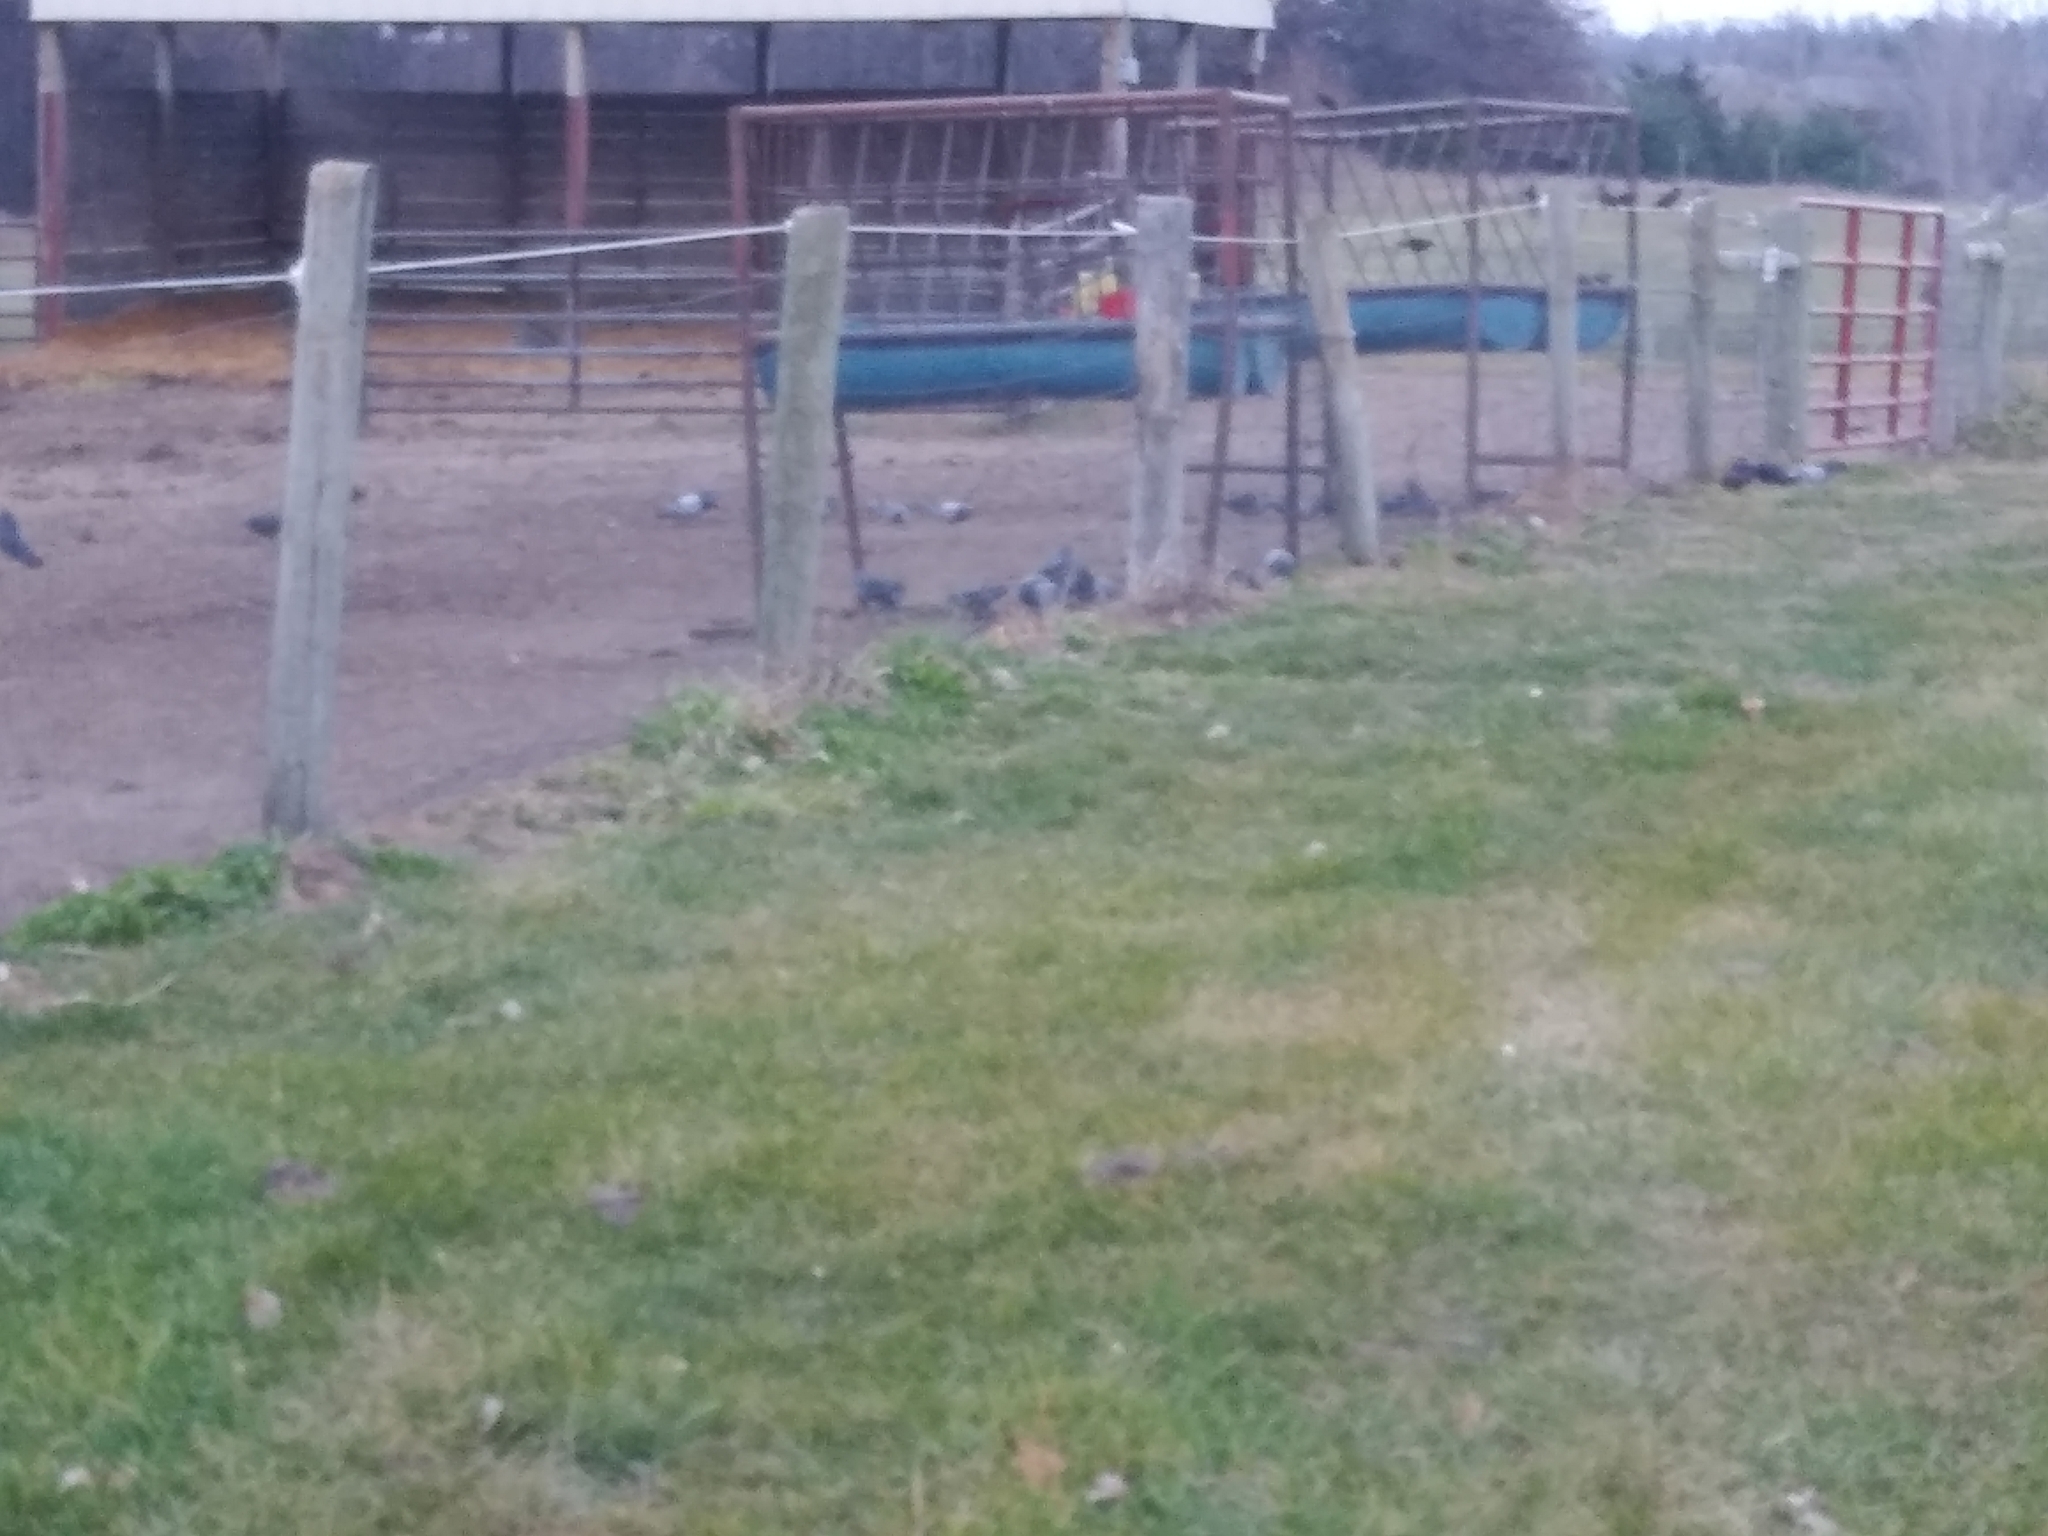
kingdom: Animalia
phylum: Chordata
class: Aves
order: Columbiformes
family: Columbidae
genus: Columba
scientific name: Columba livia
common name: Rock pigeon
